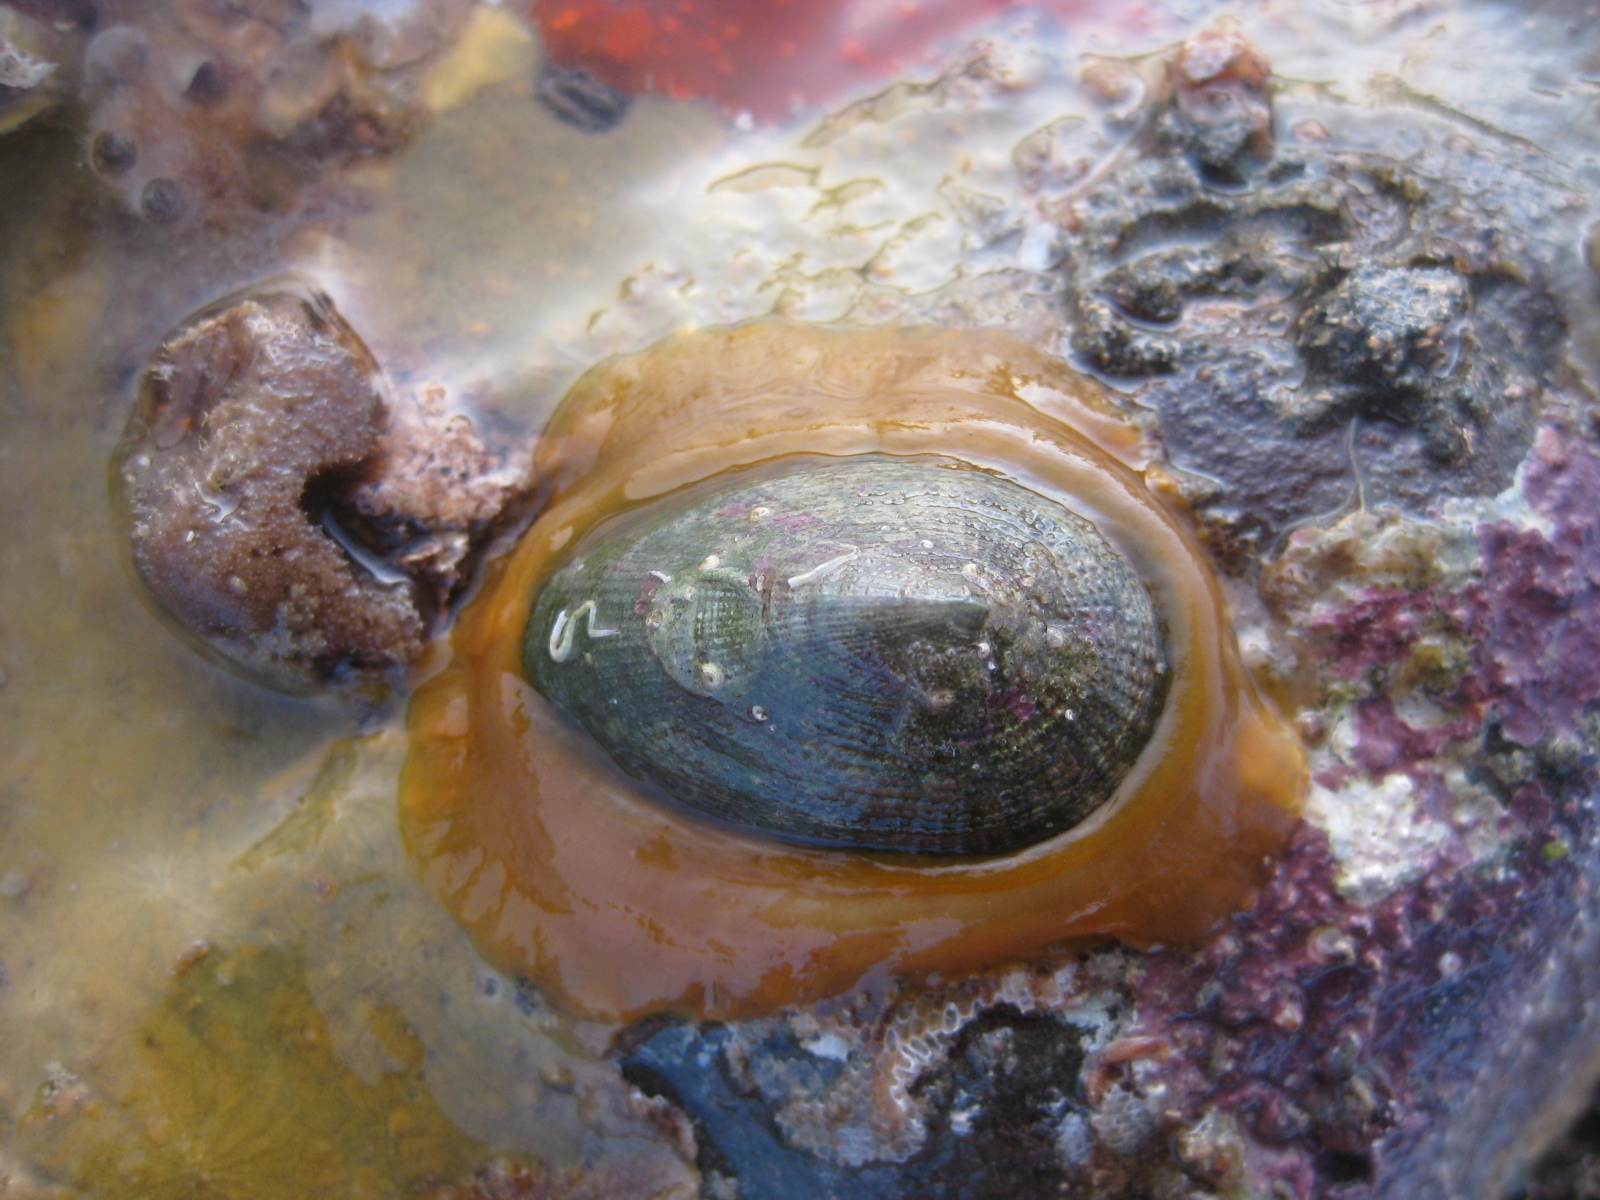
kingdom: Animalia
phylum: Mollusca
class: Gastropoda
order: Lepetellida
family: Fissurellidae
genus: Tugali
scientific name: Tugali elegans
